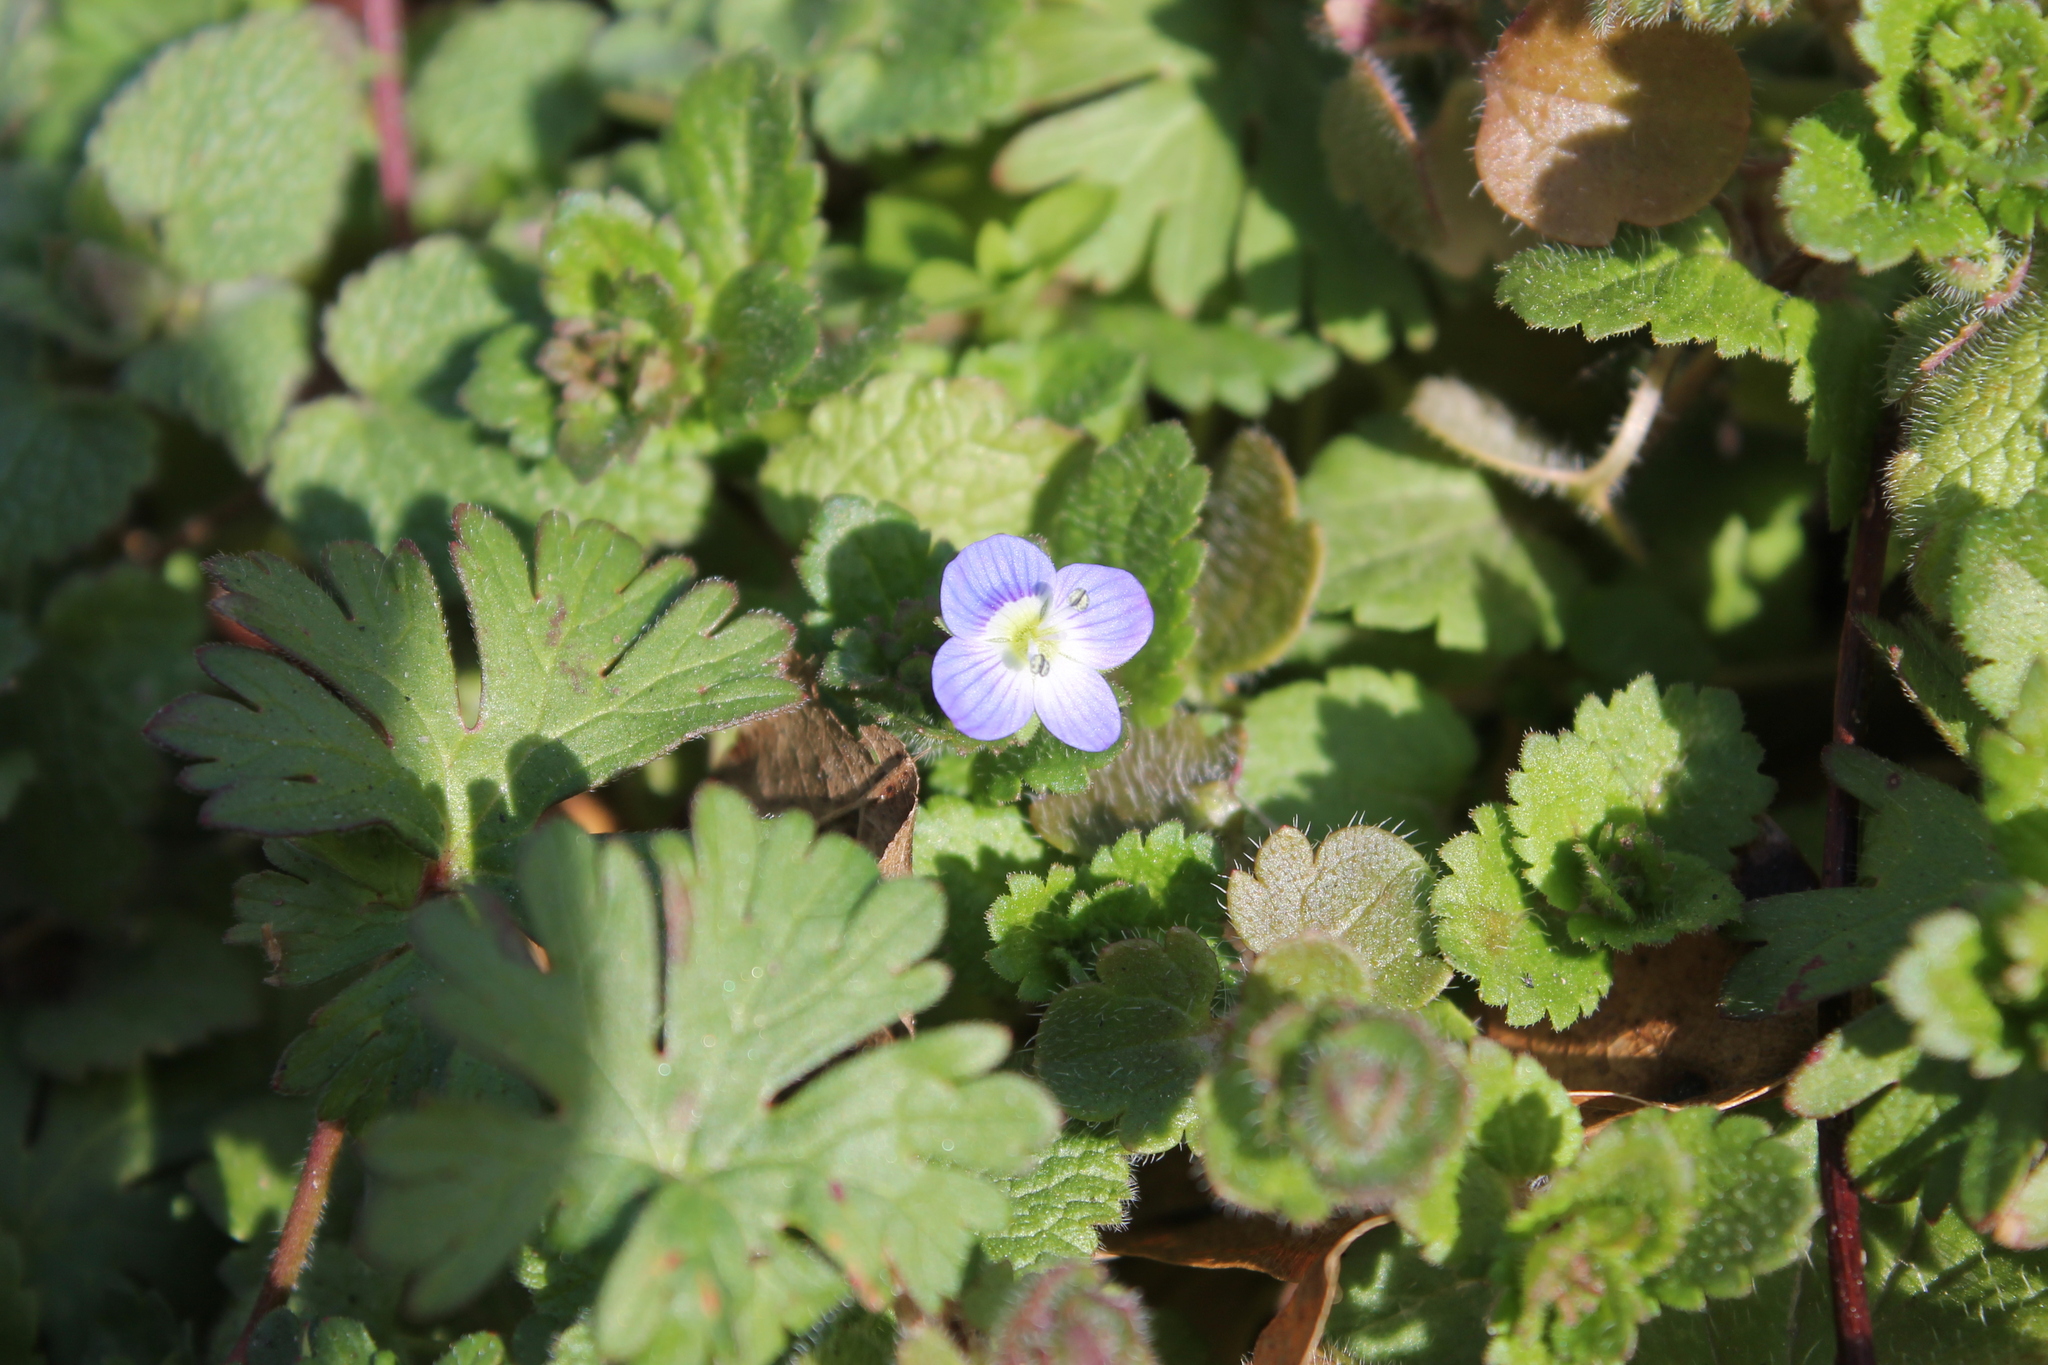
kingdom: Plantae
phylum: Tracheophyta
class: Magnoliopsida
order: Lamiales
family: Plantaginaceae
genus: Veronica
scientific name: Veronica persica
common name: Common field-speedwell
